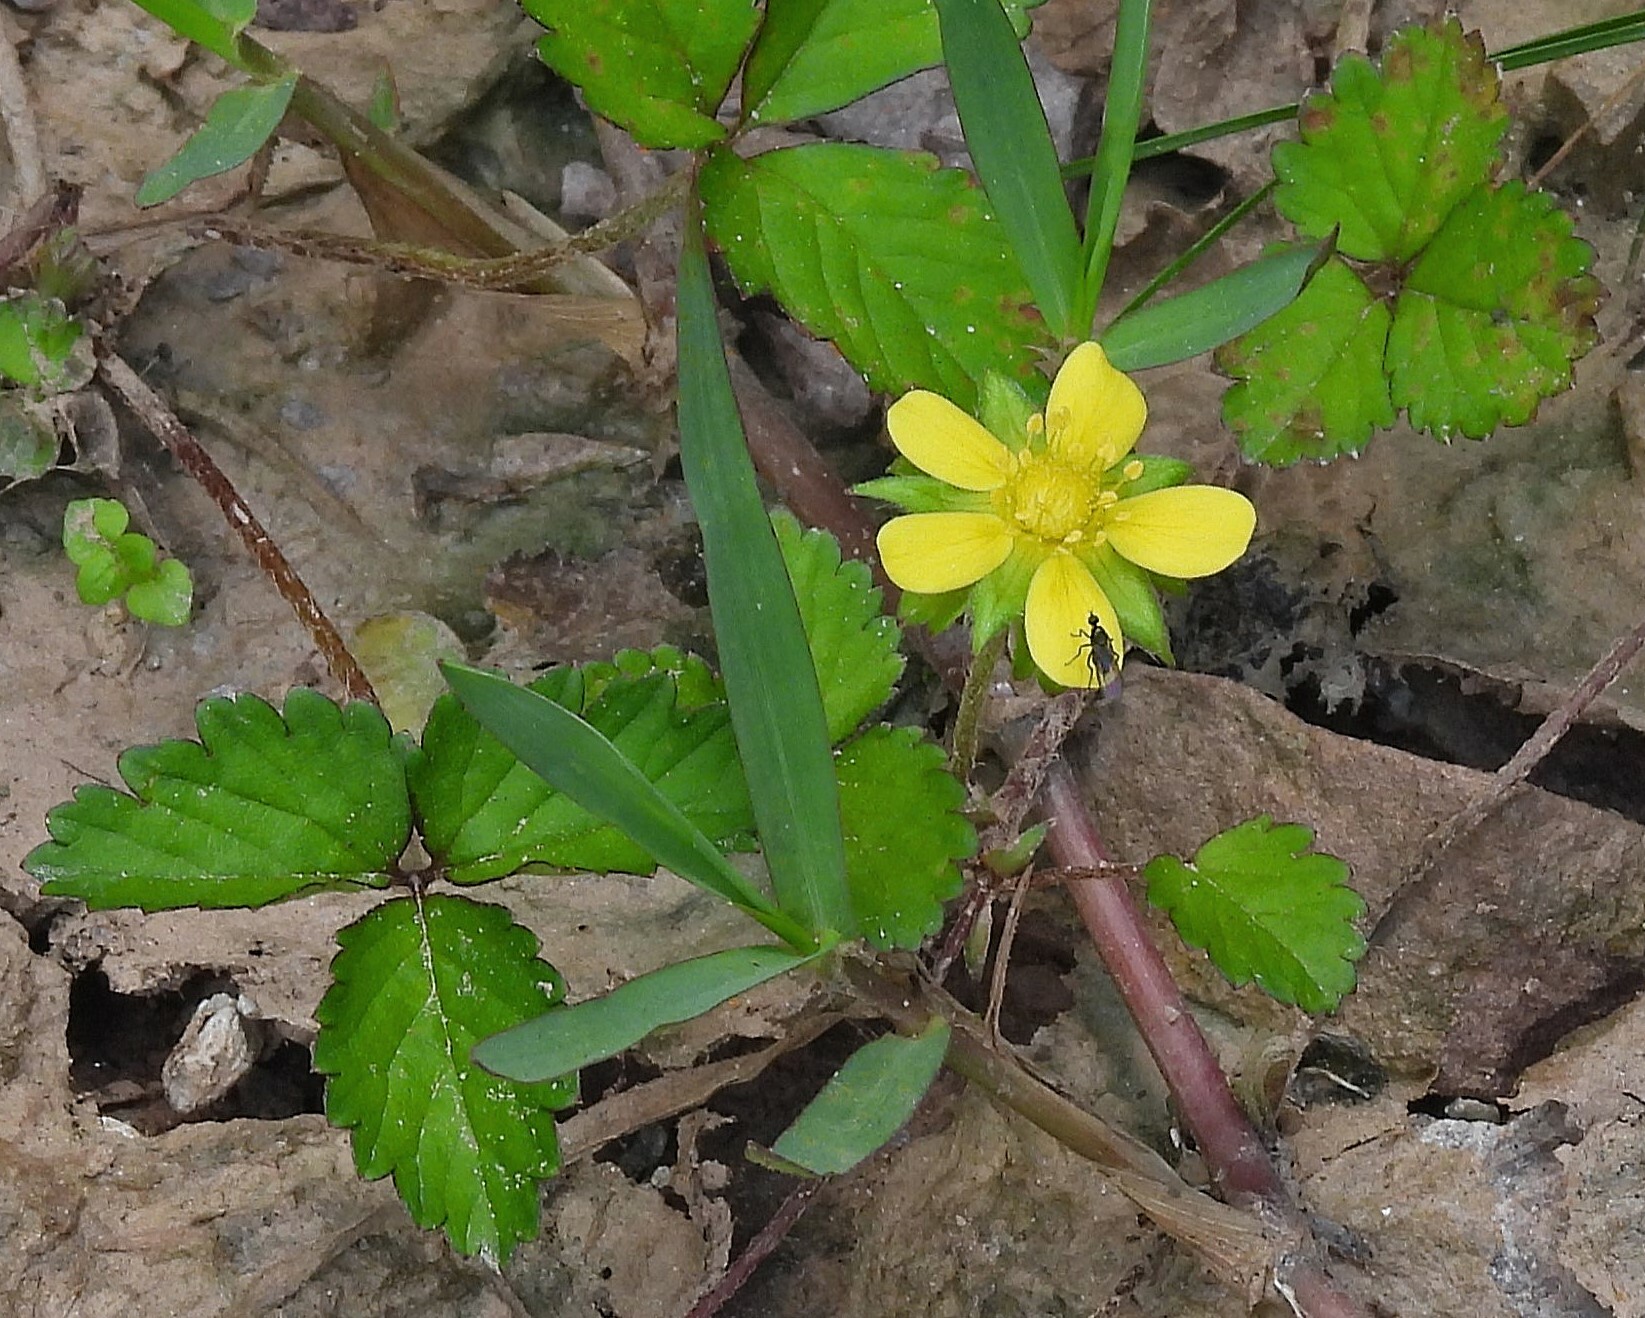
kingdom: Plantae
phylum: Tracheophyta
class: Magnoliopsida
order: Rosales
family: Rosaceae
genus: Potentilla
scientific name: Potentilla indica
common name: Yellow-flowered strawberry
